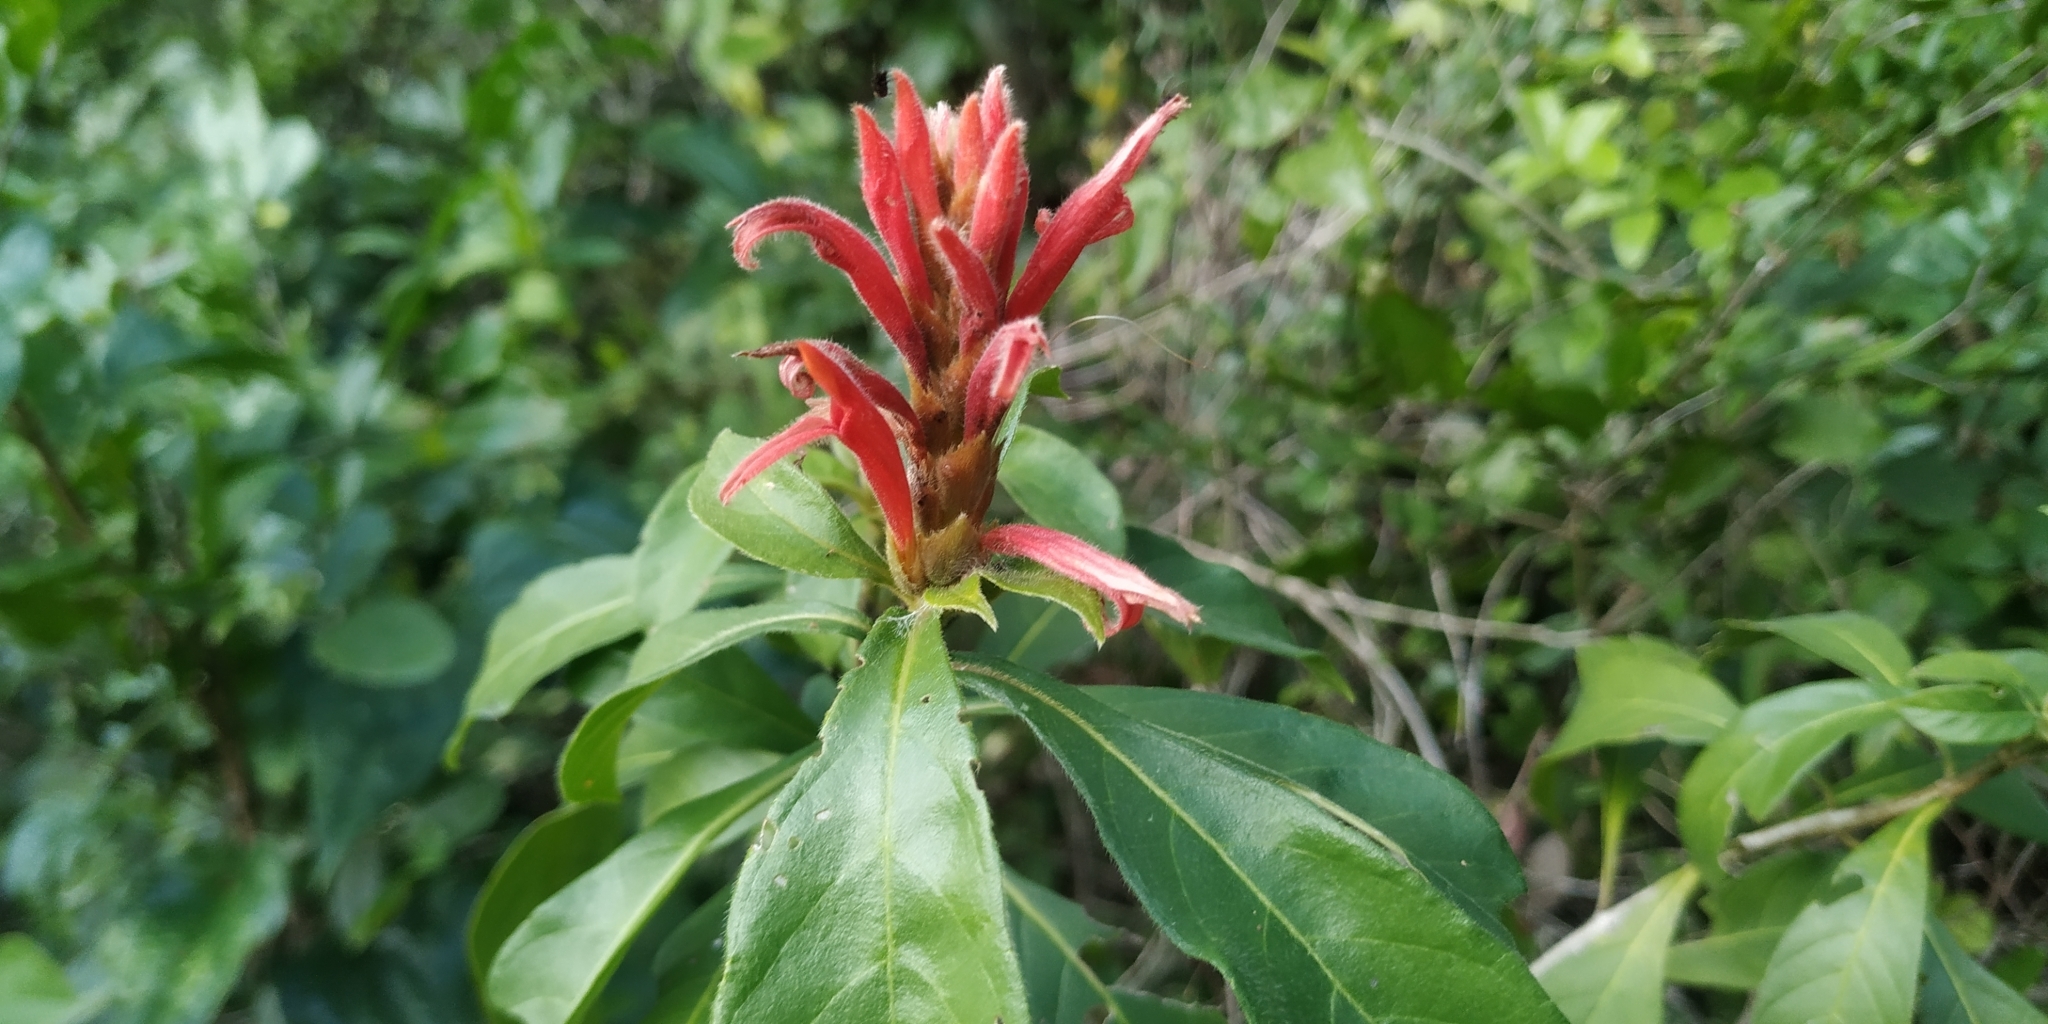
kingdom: Plantae
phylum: Tracheophyta
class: Magnoliopsida
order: Lamiales
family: Acanthaceae
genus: Aphelandra
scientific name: Aphelandra scabra
